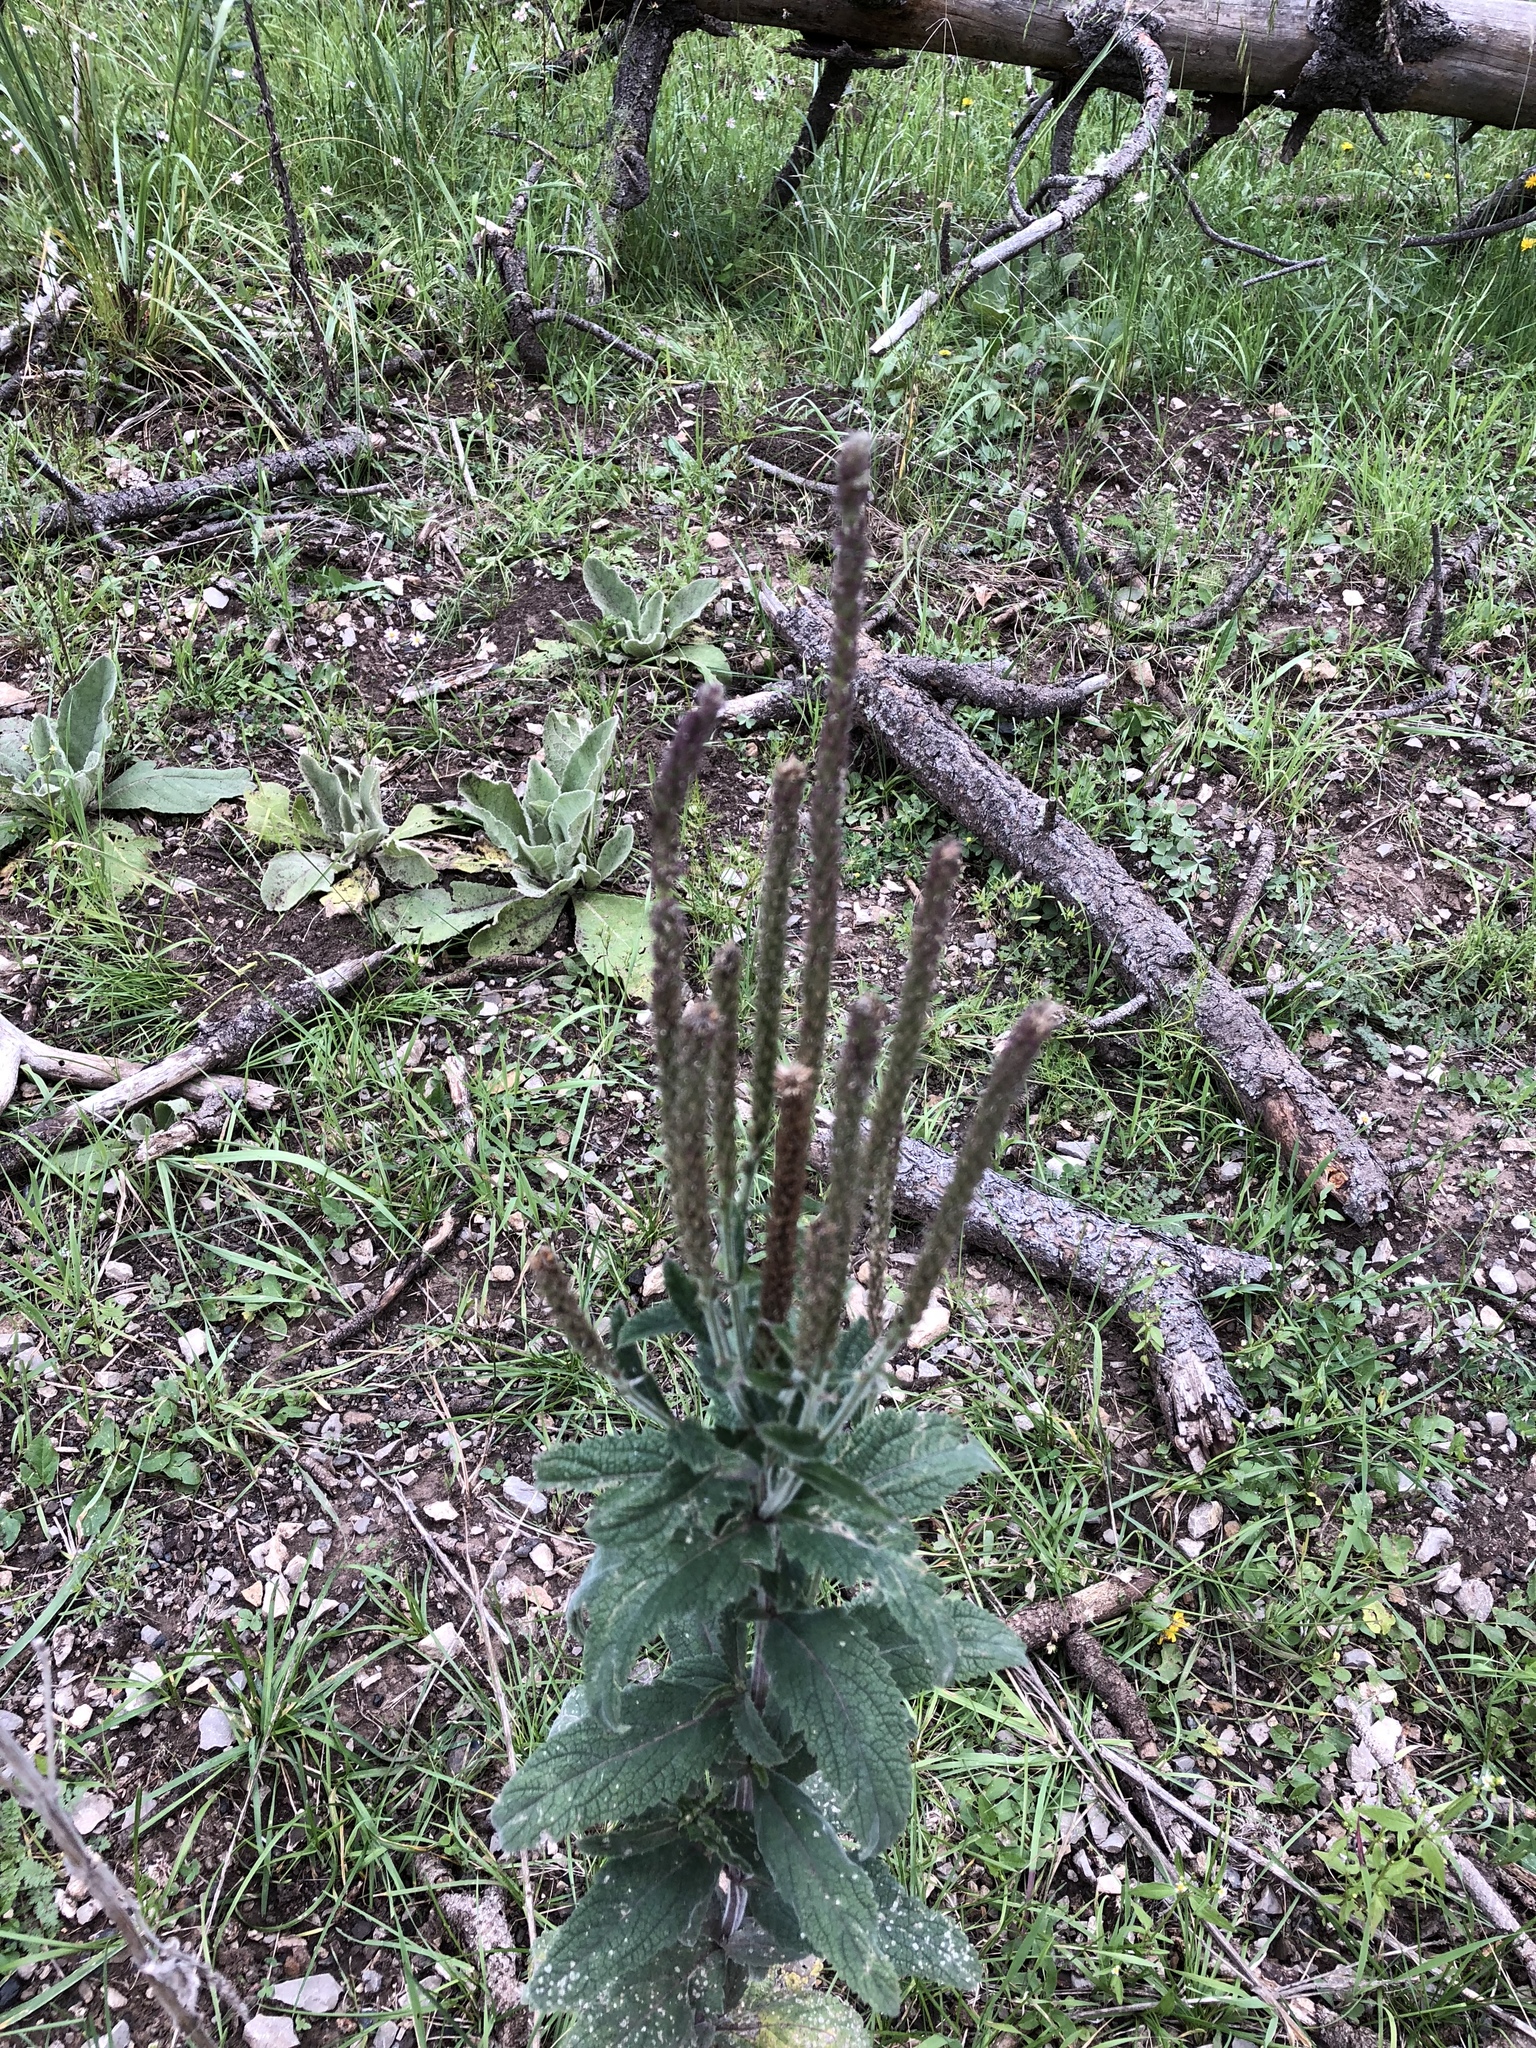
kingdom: Plantae
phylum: Tracheophyta
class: Magnoliopsida
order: Lamiales
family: Verbenaceae
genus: Verbena
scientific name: Verbena macdougalii
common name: New mexico vervain
